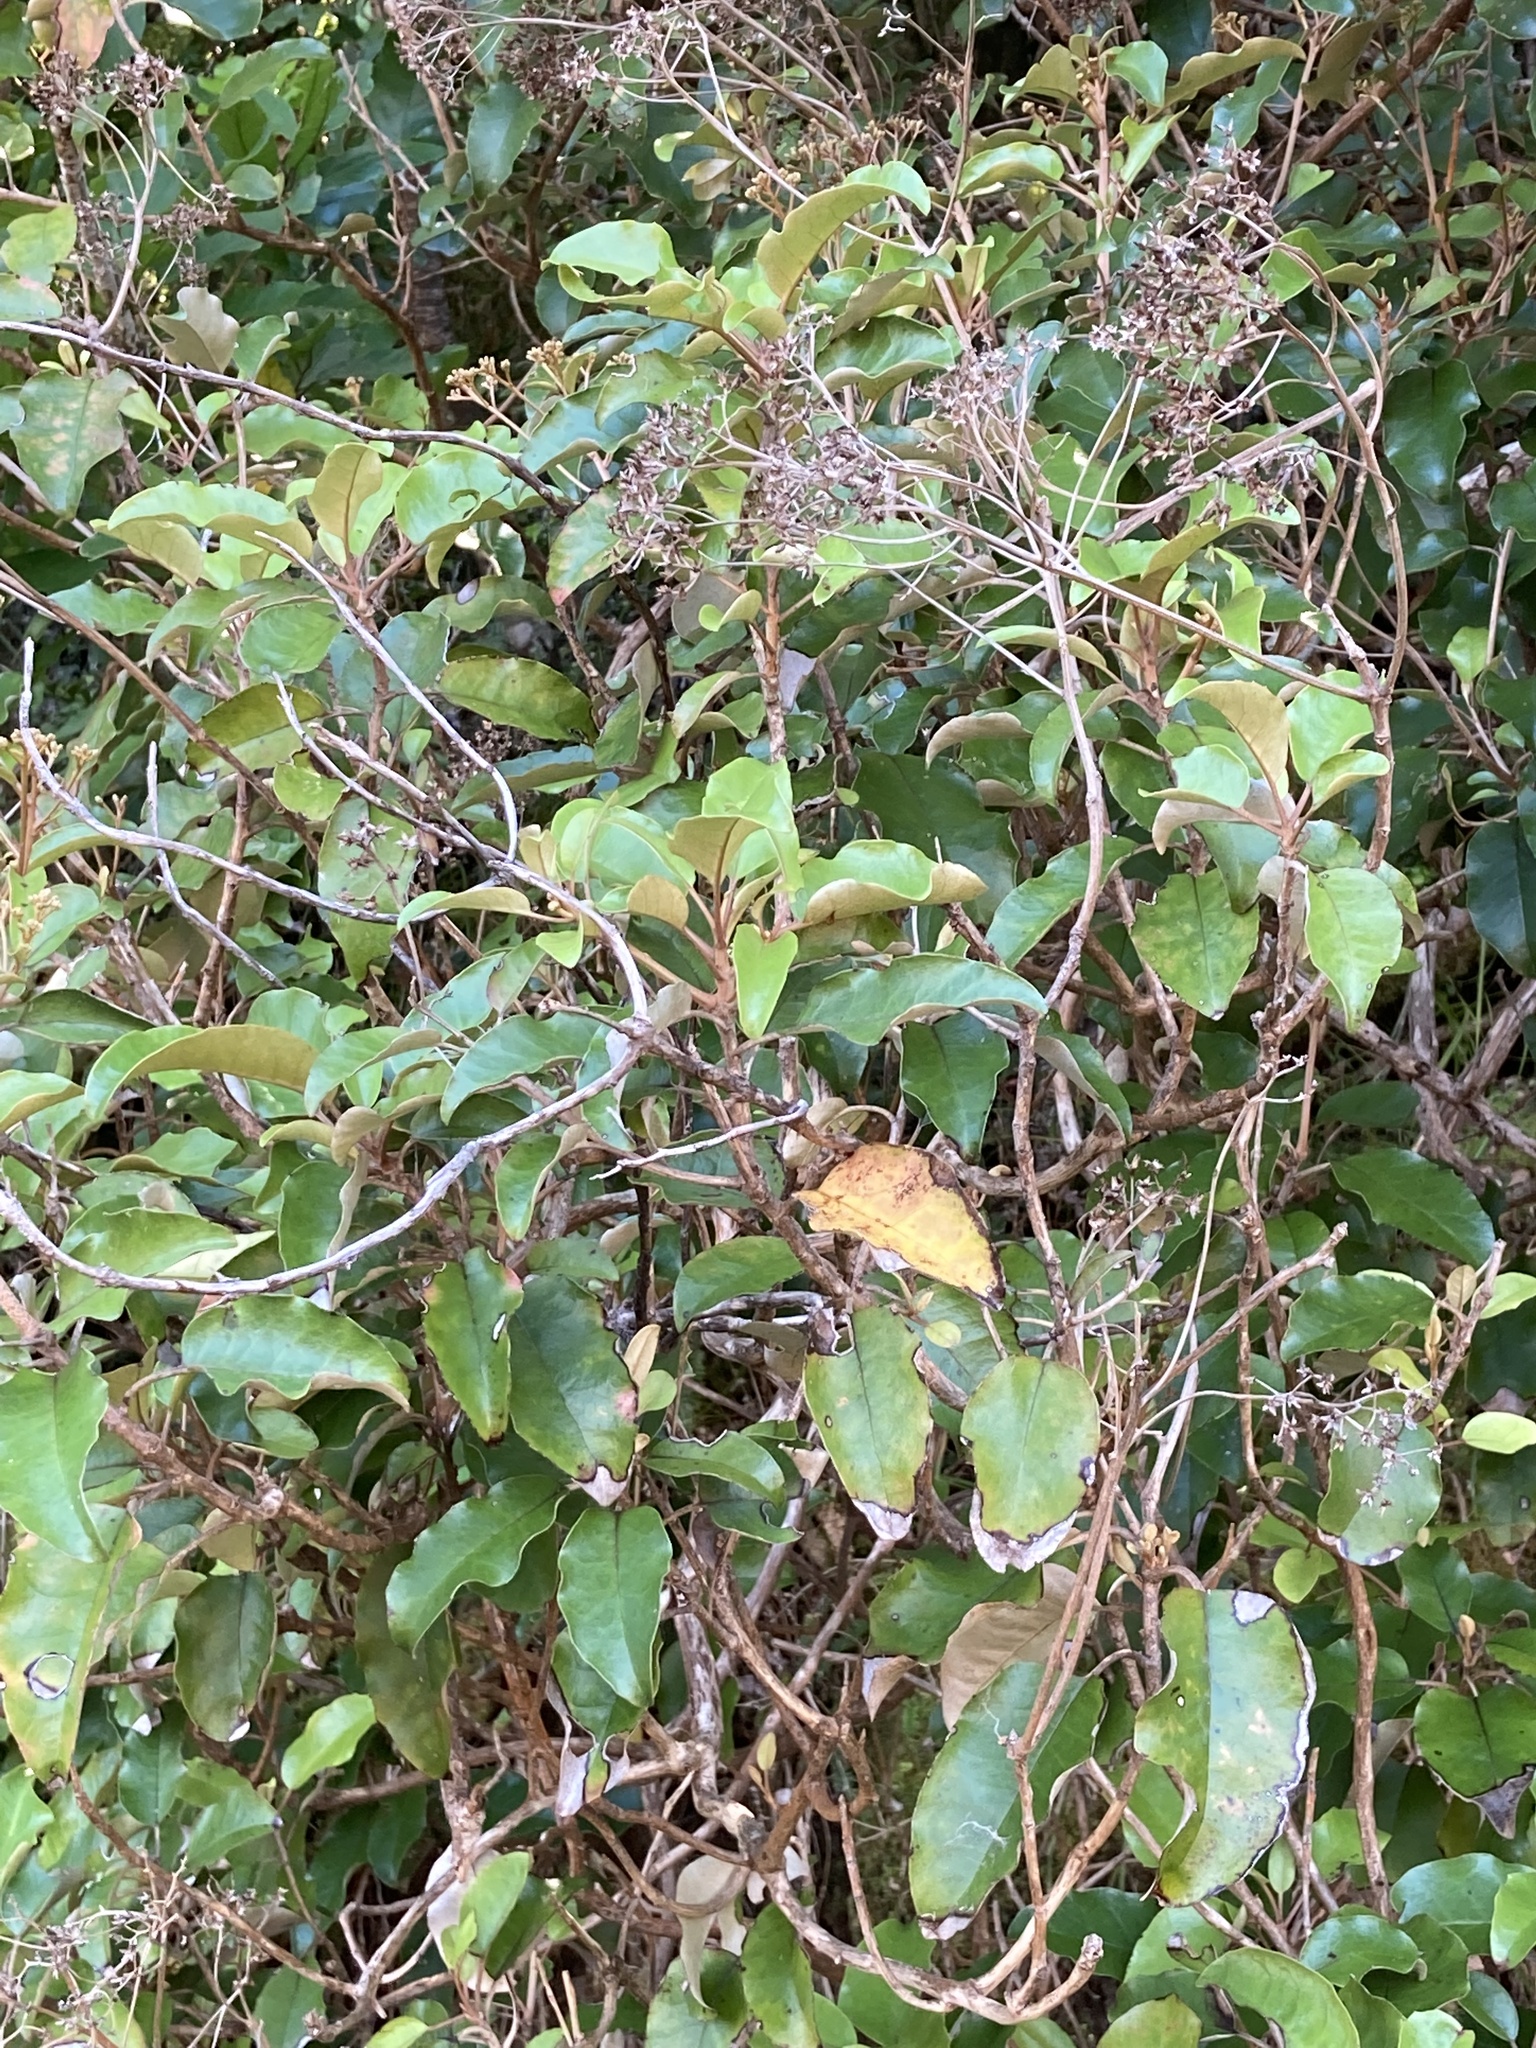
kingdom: Plantae
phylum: Tracheophyta
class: Magnoliopsida
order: Asterales
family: Asteraceae
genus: Olearia
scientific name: Olearia furfuracea
